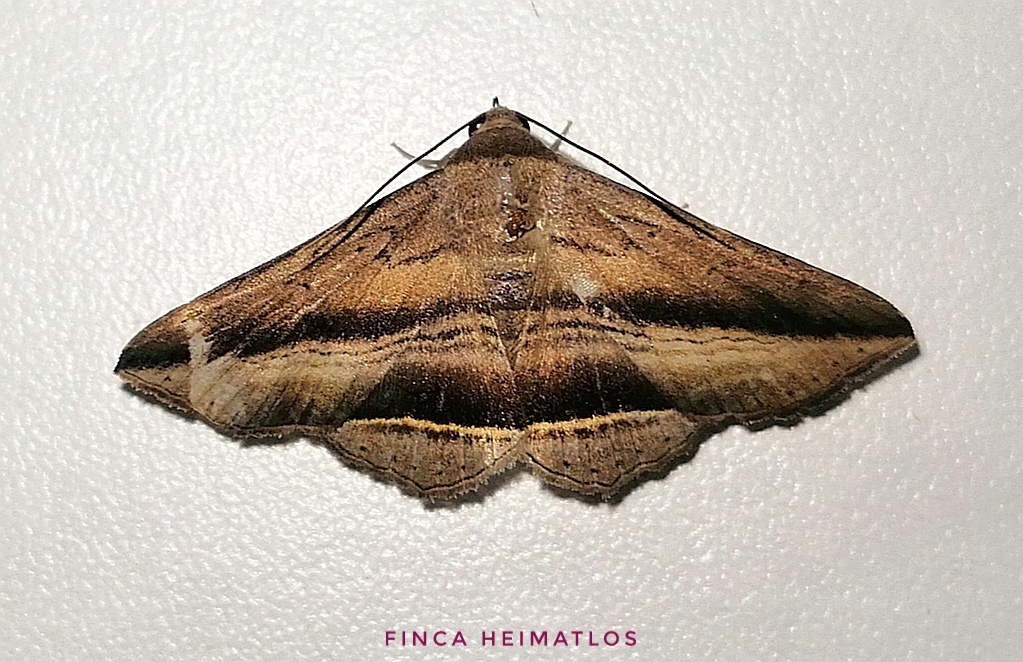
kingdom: Animalia
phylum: Arthropoda
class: Insecta
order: Lepidoptera
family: Erebidae
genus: Bendis
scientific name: Bendis duplicans
